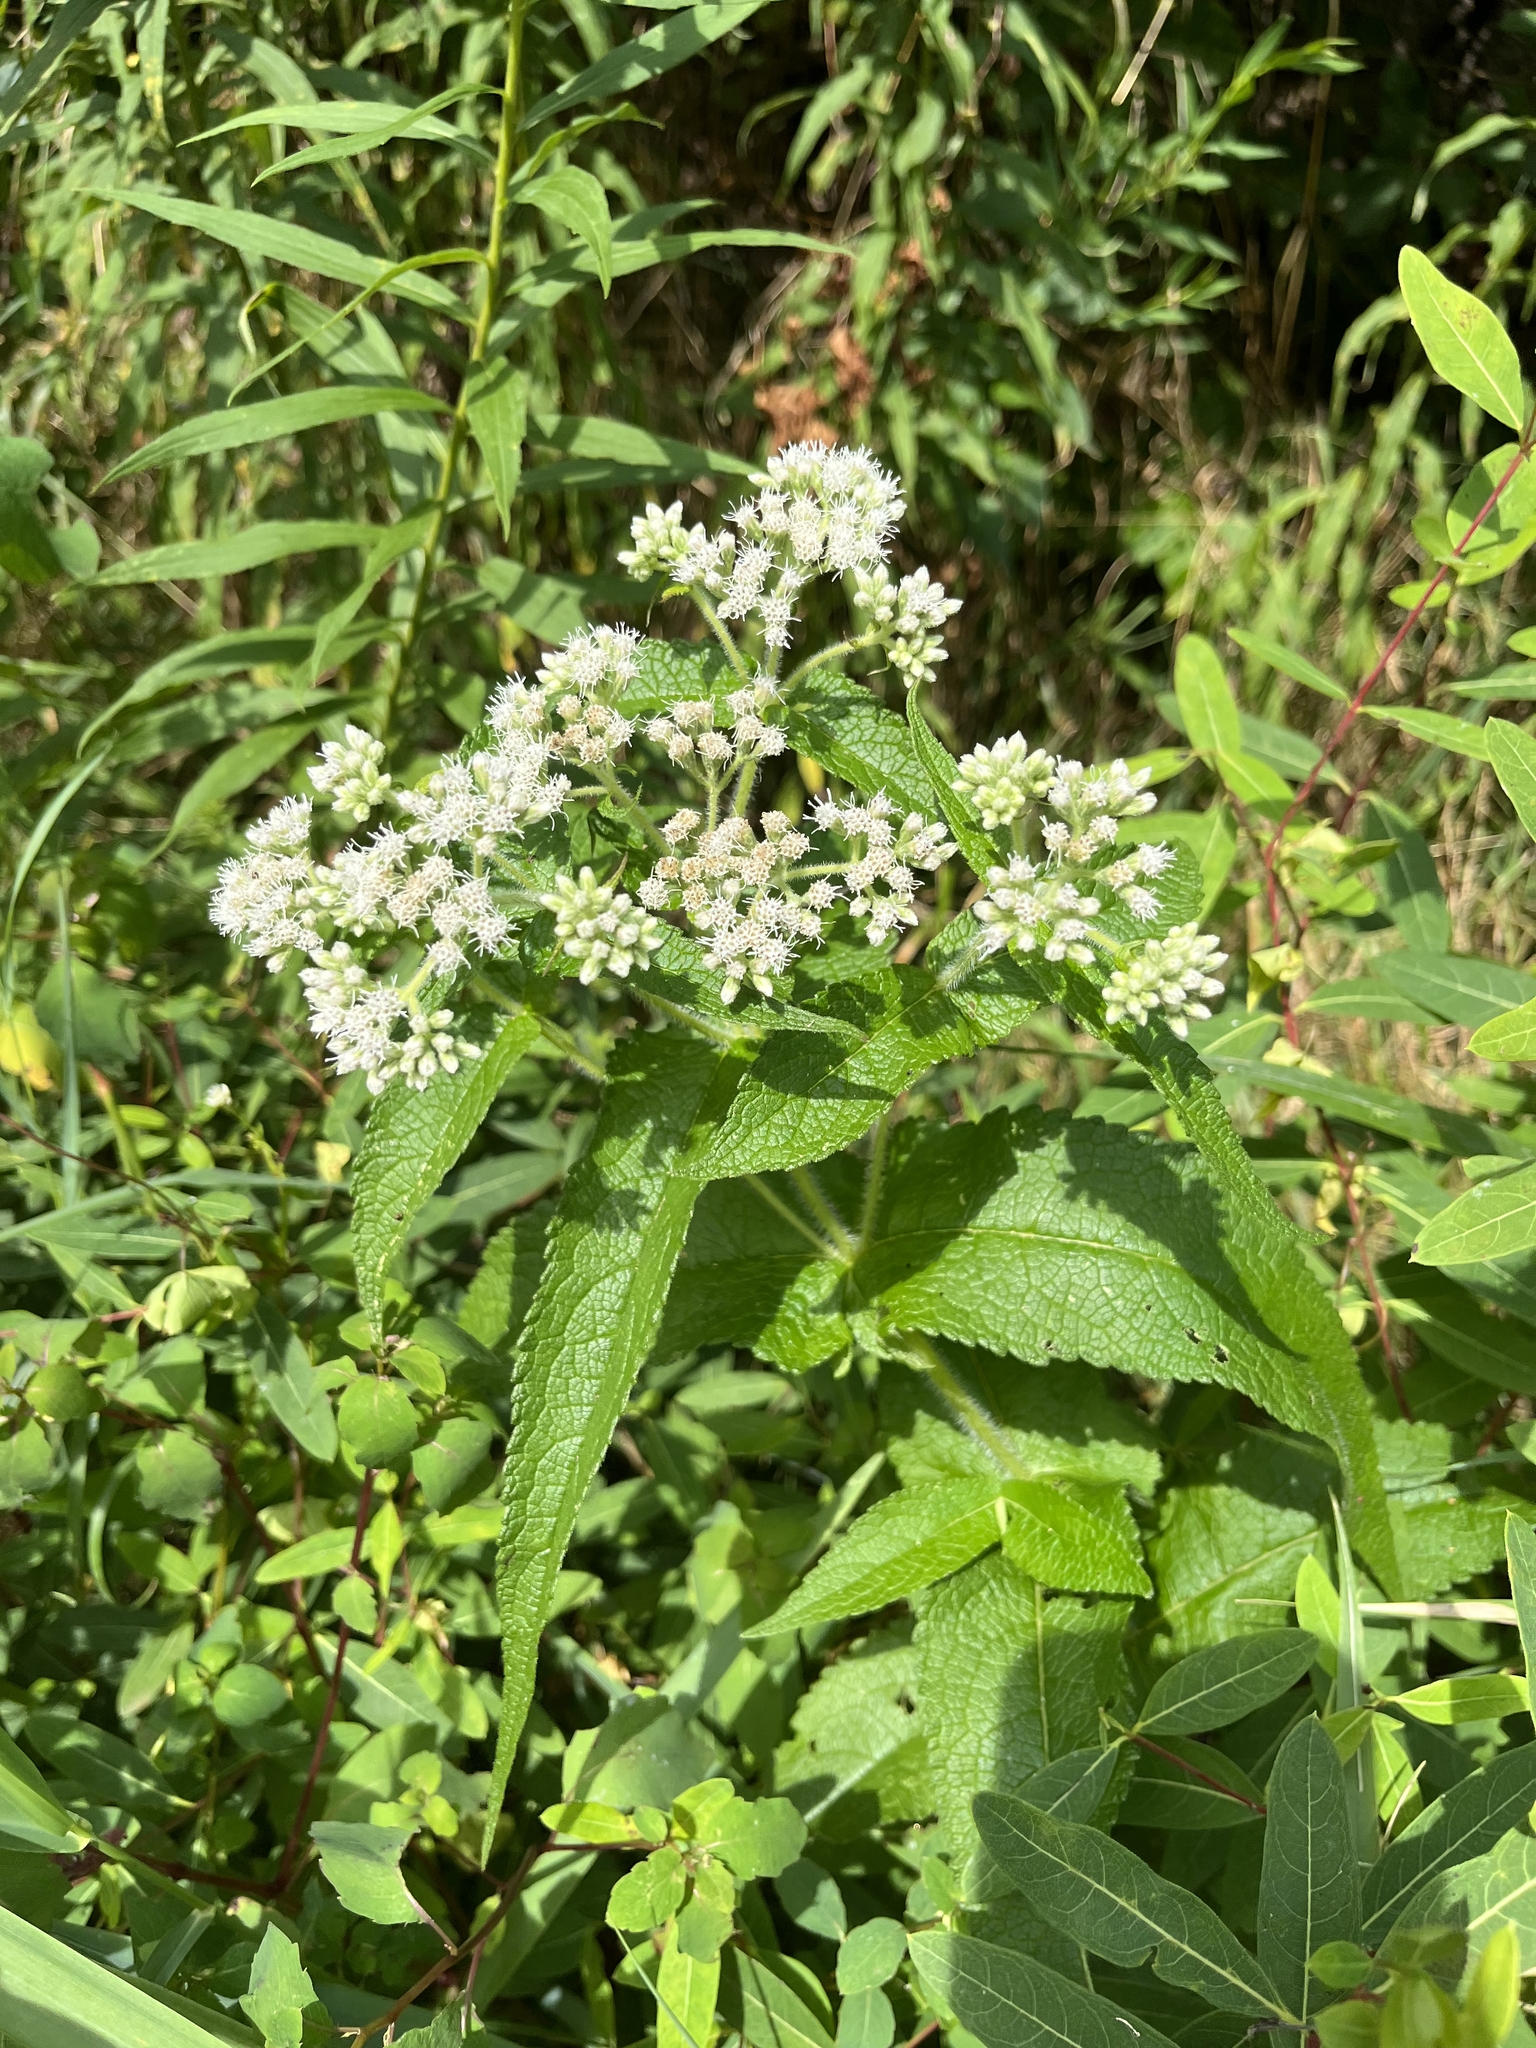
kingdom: Plantae
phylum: Tracheophyta
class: Magnoliopsida
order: Asterales
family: Asteraceae
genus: Eupatorium
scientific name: Eupatorium perfoliatum
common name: Boneset
